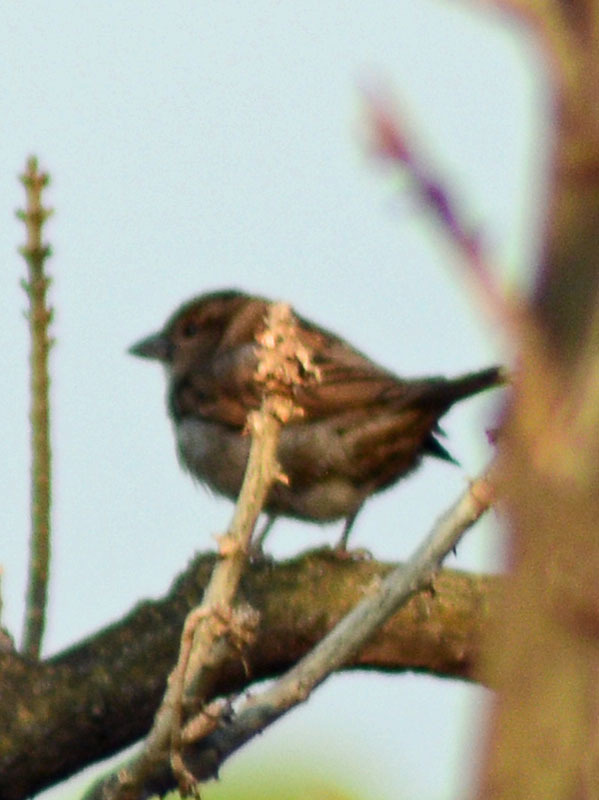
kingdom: Animalia
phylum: Chordata
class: Aves
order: Passeriformes
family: Passeridae
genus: Passer
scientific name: Passer domesticus
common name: House sparrow
